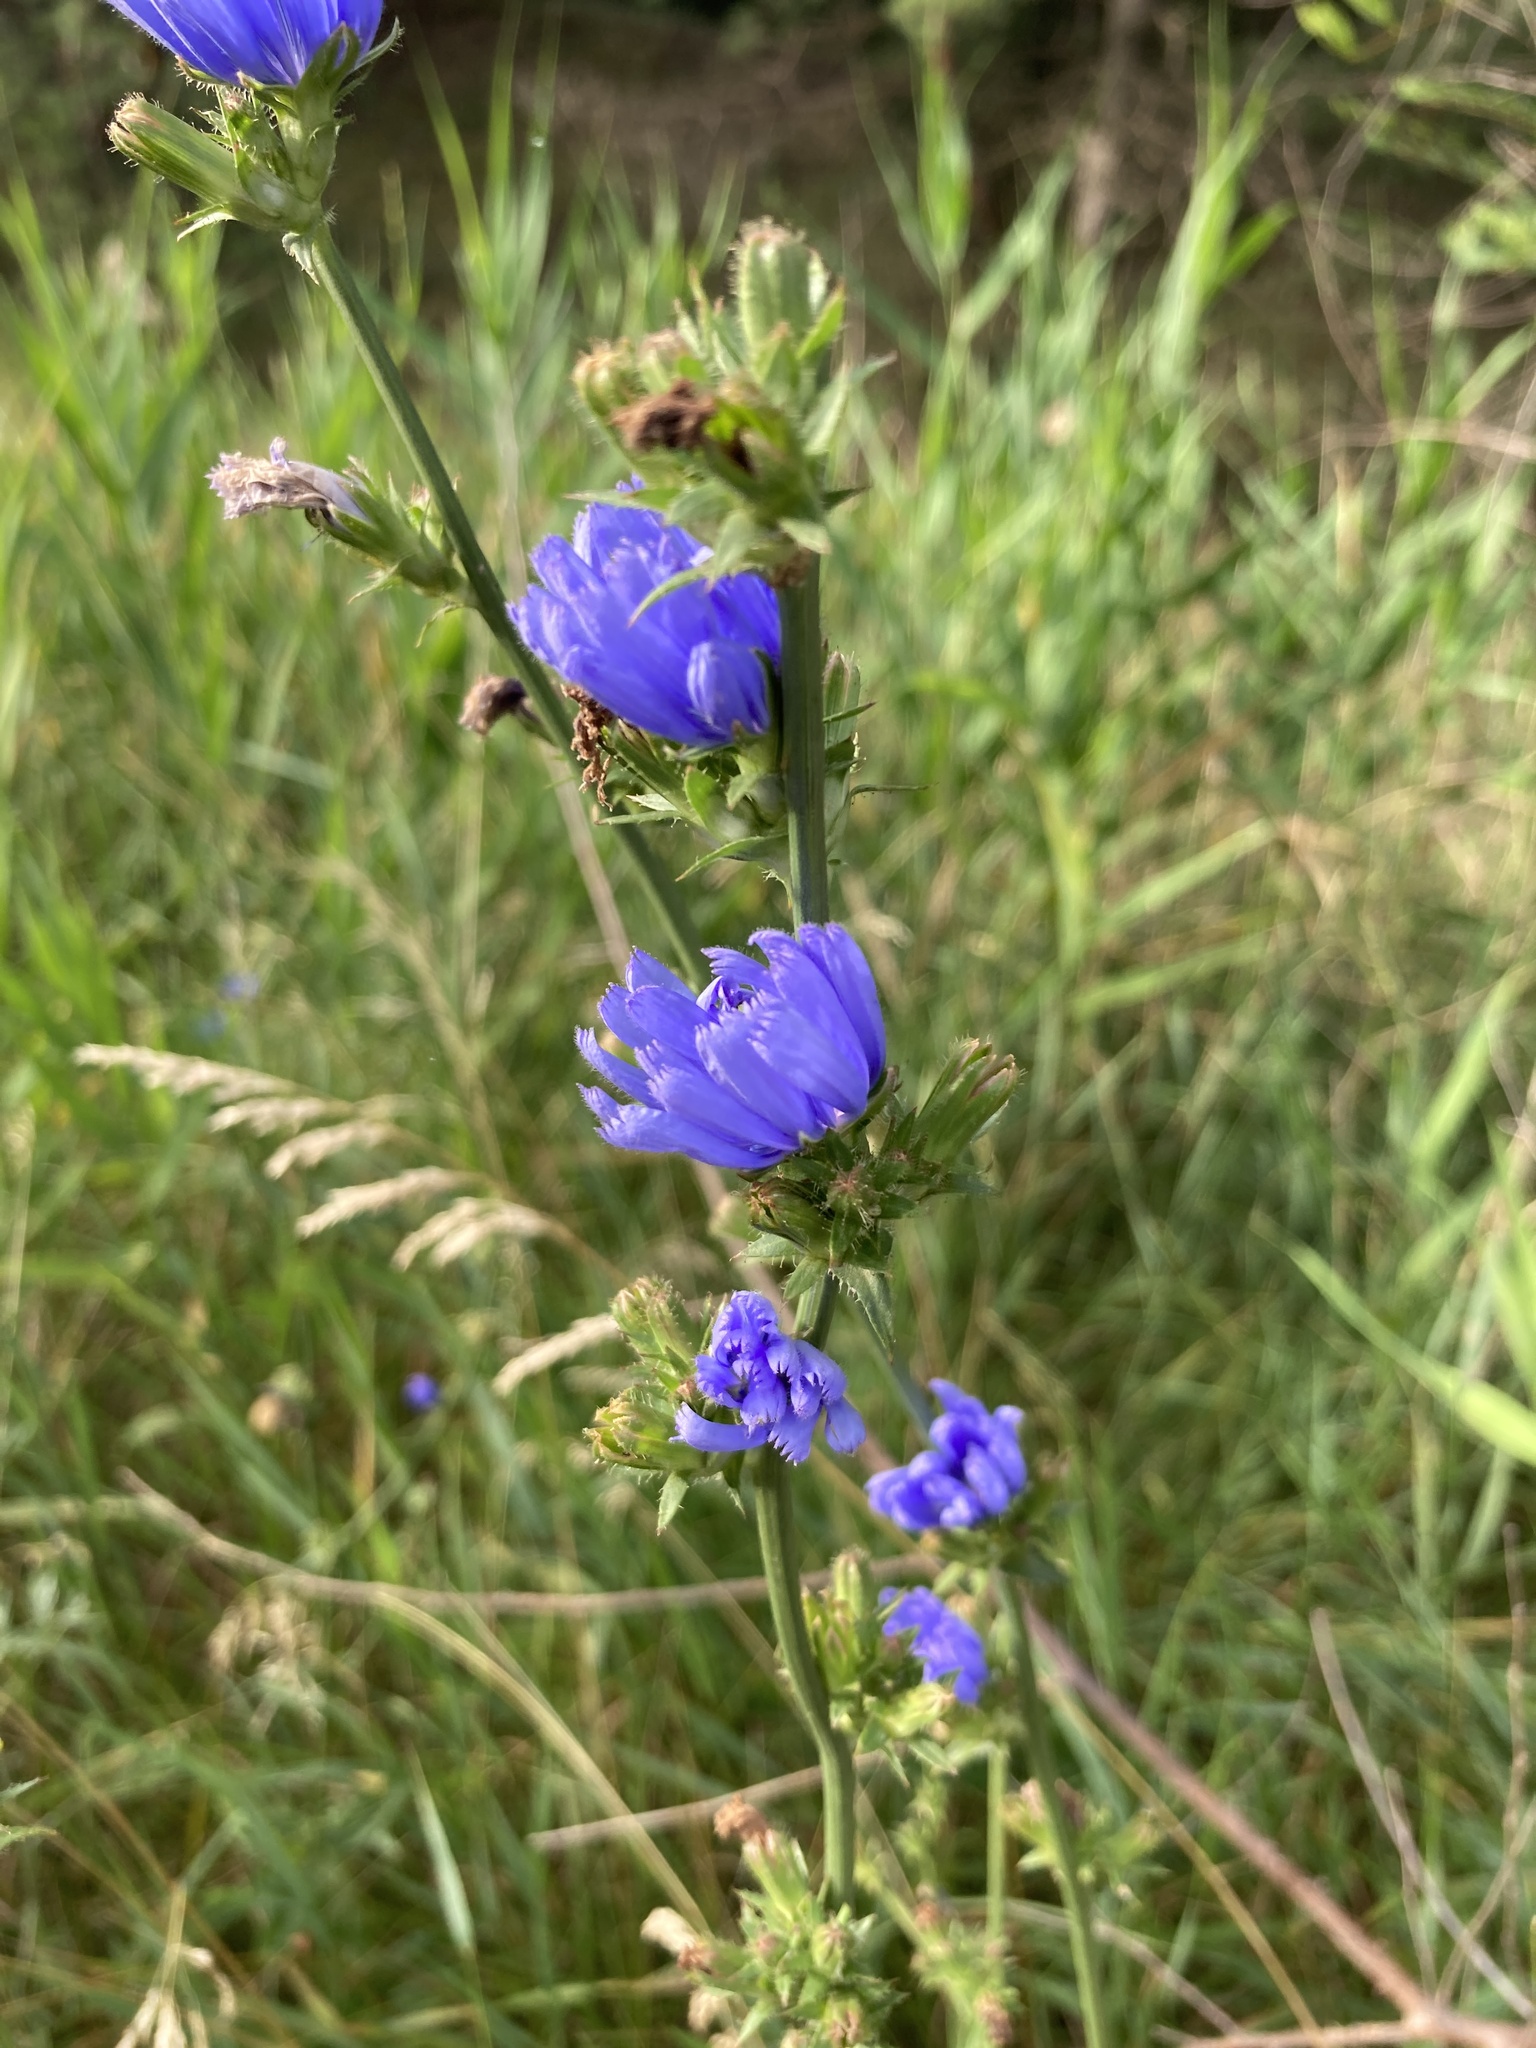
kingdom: Plantae
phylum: Tracheophyta
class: Magnoliopsida
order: Asterales
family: Asteraceae
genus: Cichorium
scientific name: Cichorium intybus
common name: Chicory
